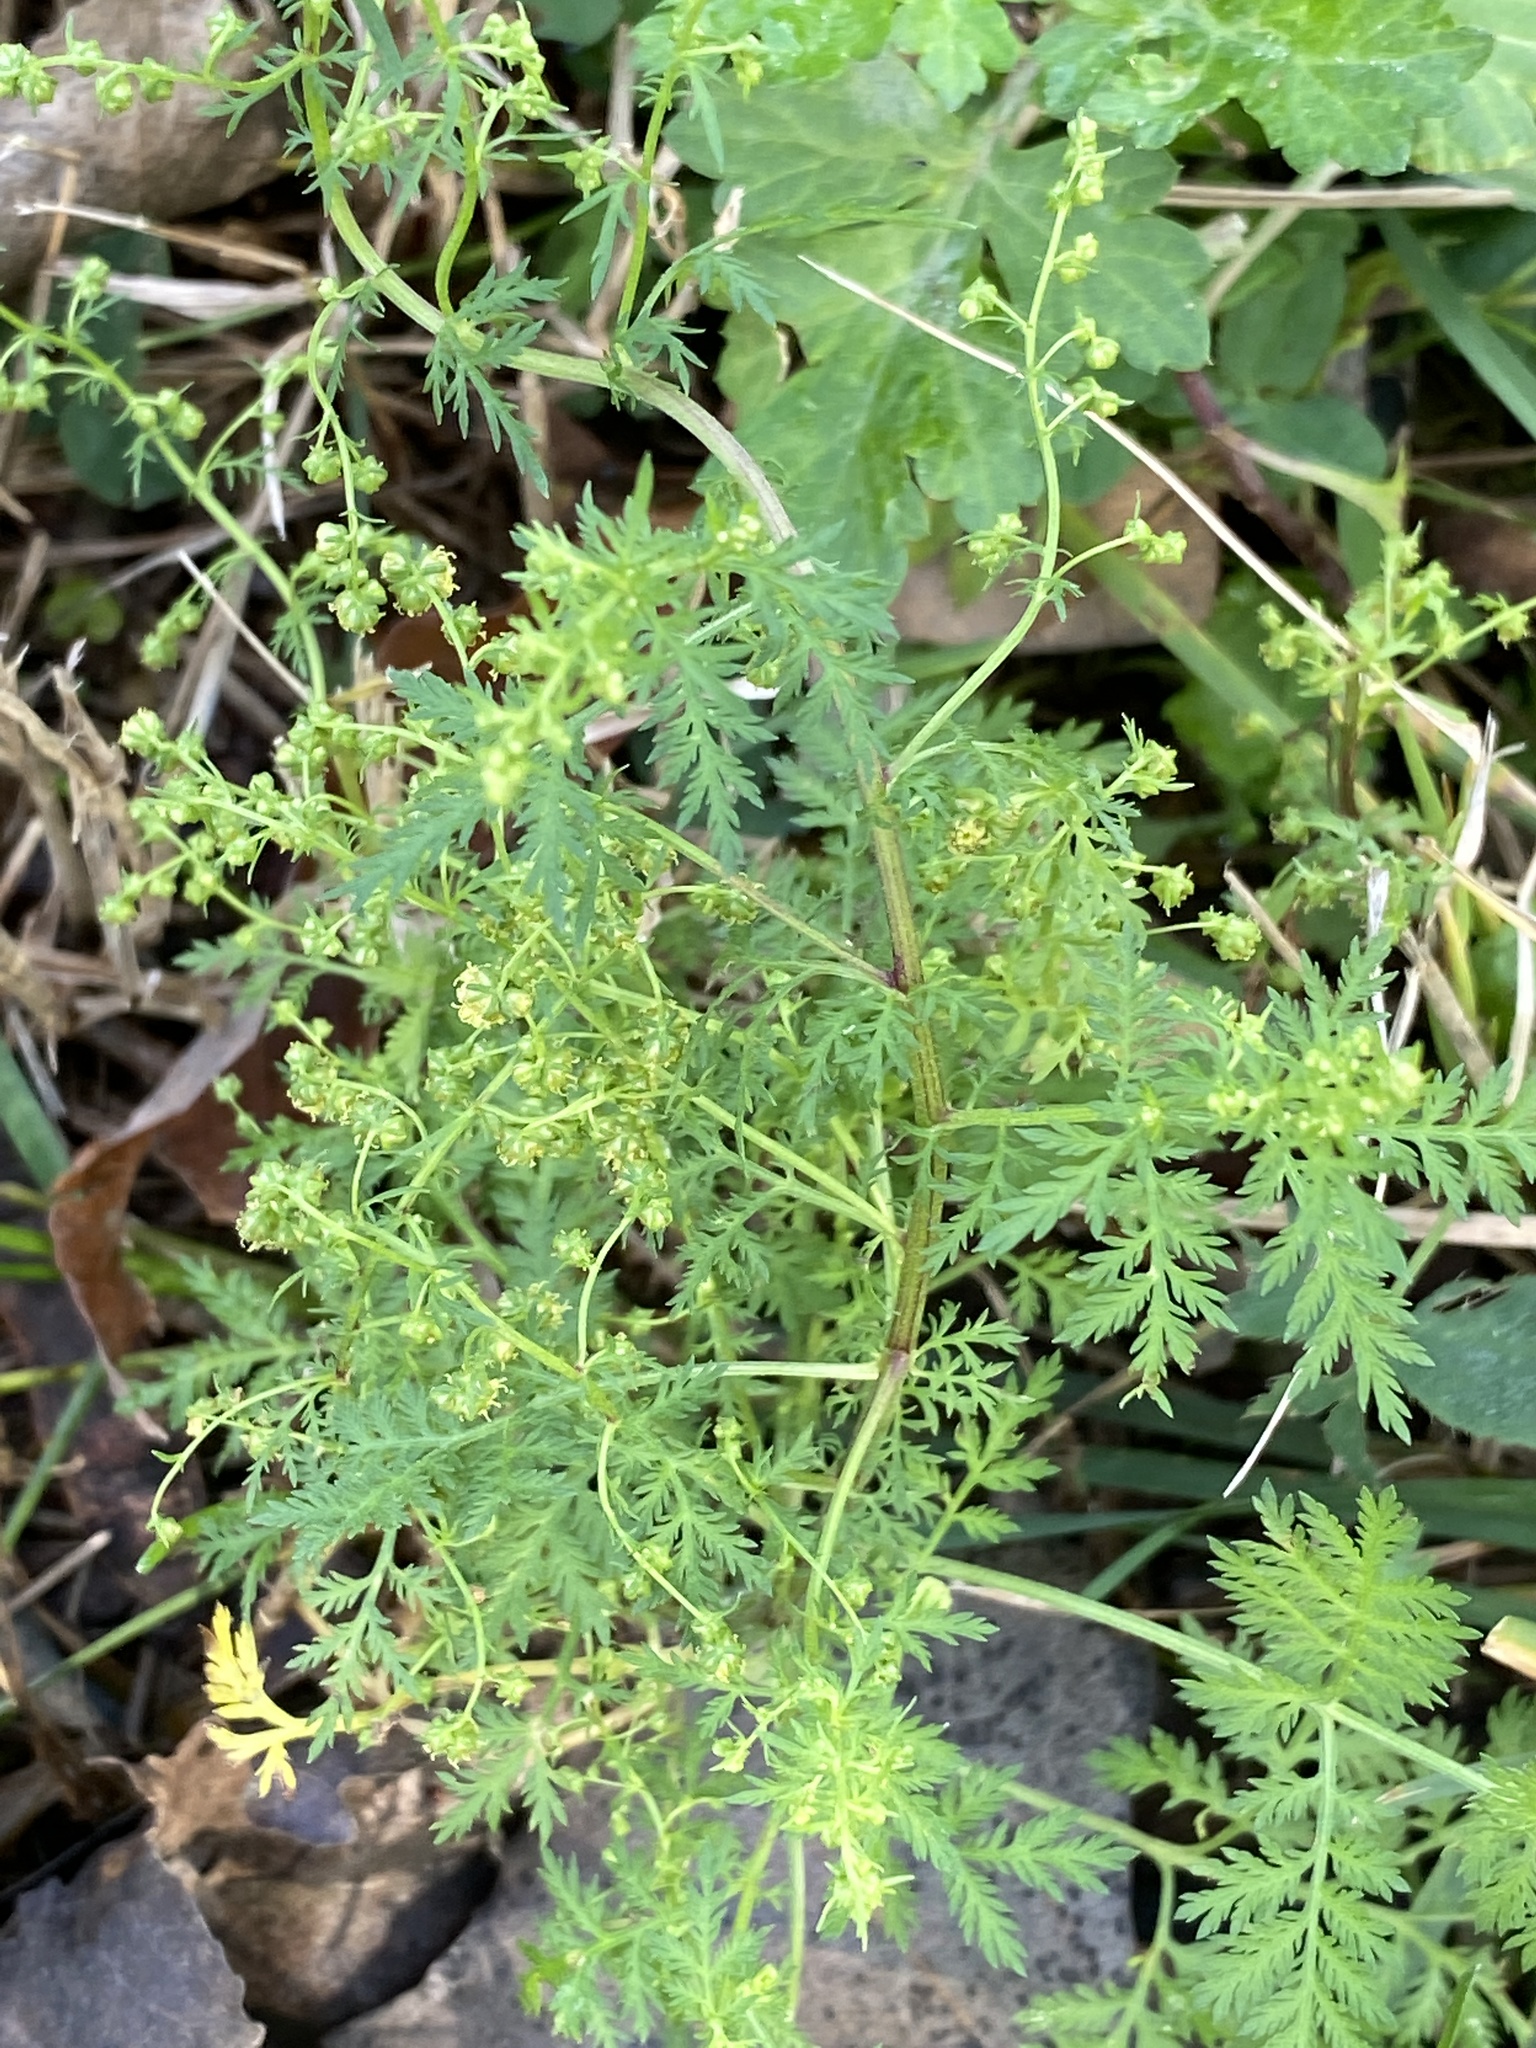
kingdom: Plantae
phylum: Tracheophyta
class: Magnoliopsida
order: Asterales
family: Asteraceae
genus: Artemisia
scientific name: Artemisia annua
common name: Sweet sagewort
